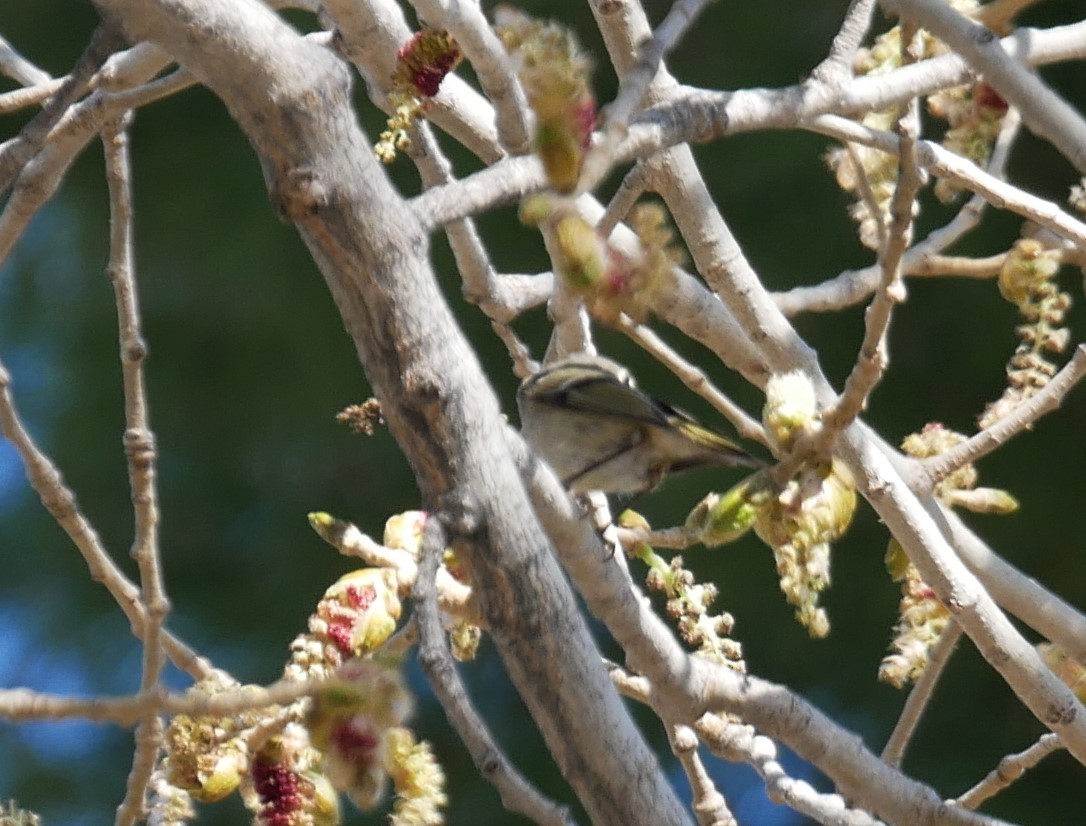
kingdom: Animalia
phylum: Chordata
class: Aves
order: Passeriformes
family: Regulidae
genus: Regulus
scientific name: Regulus calendula
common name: Ruby-crowned kinglet
